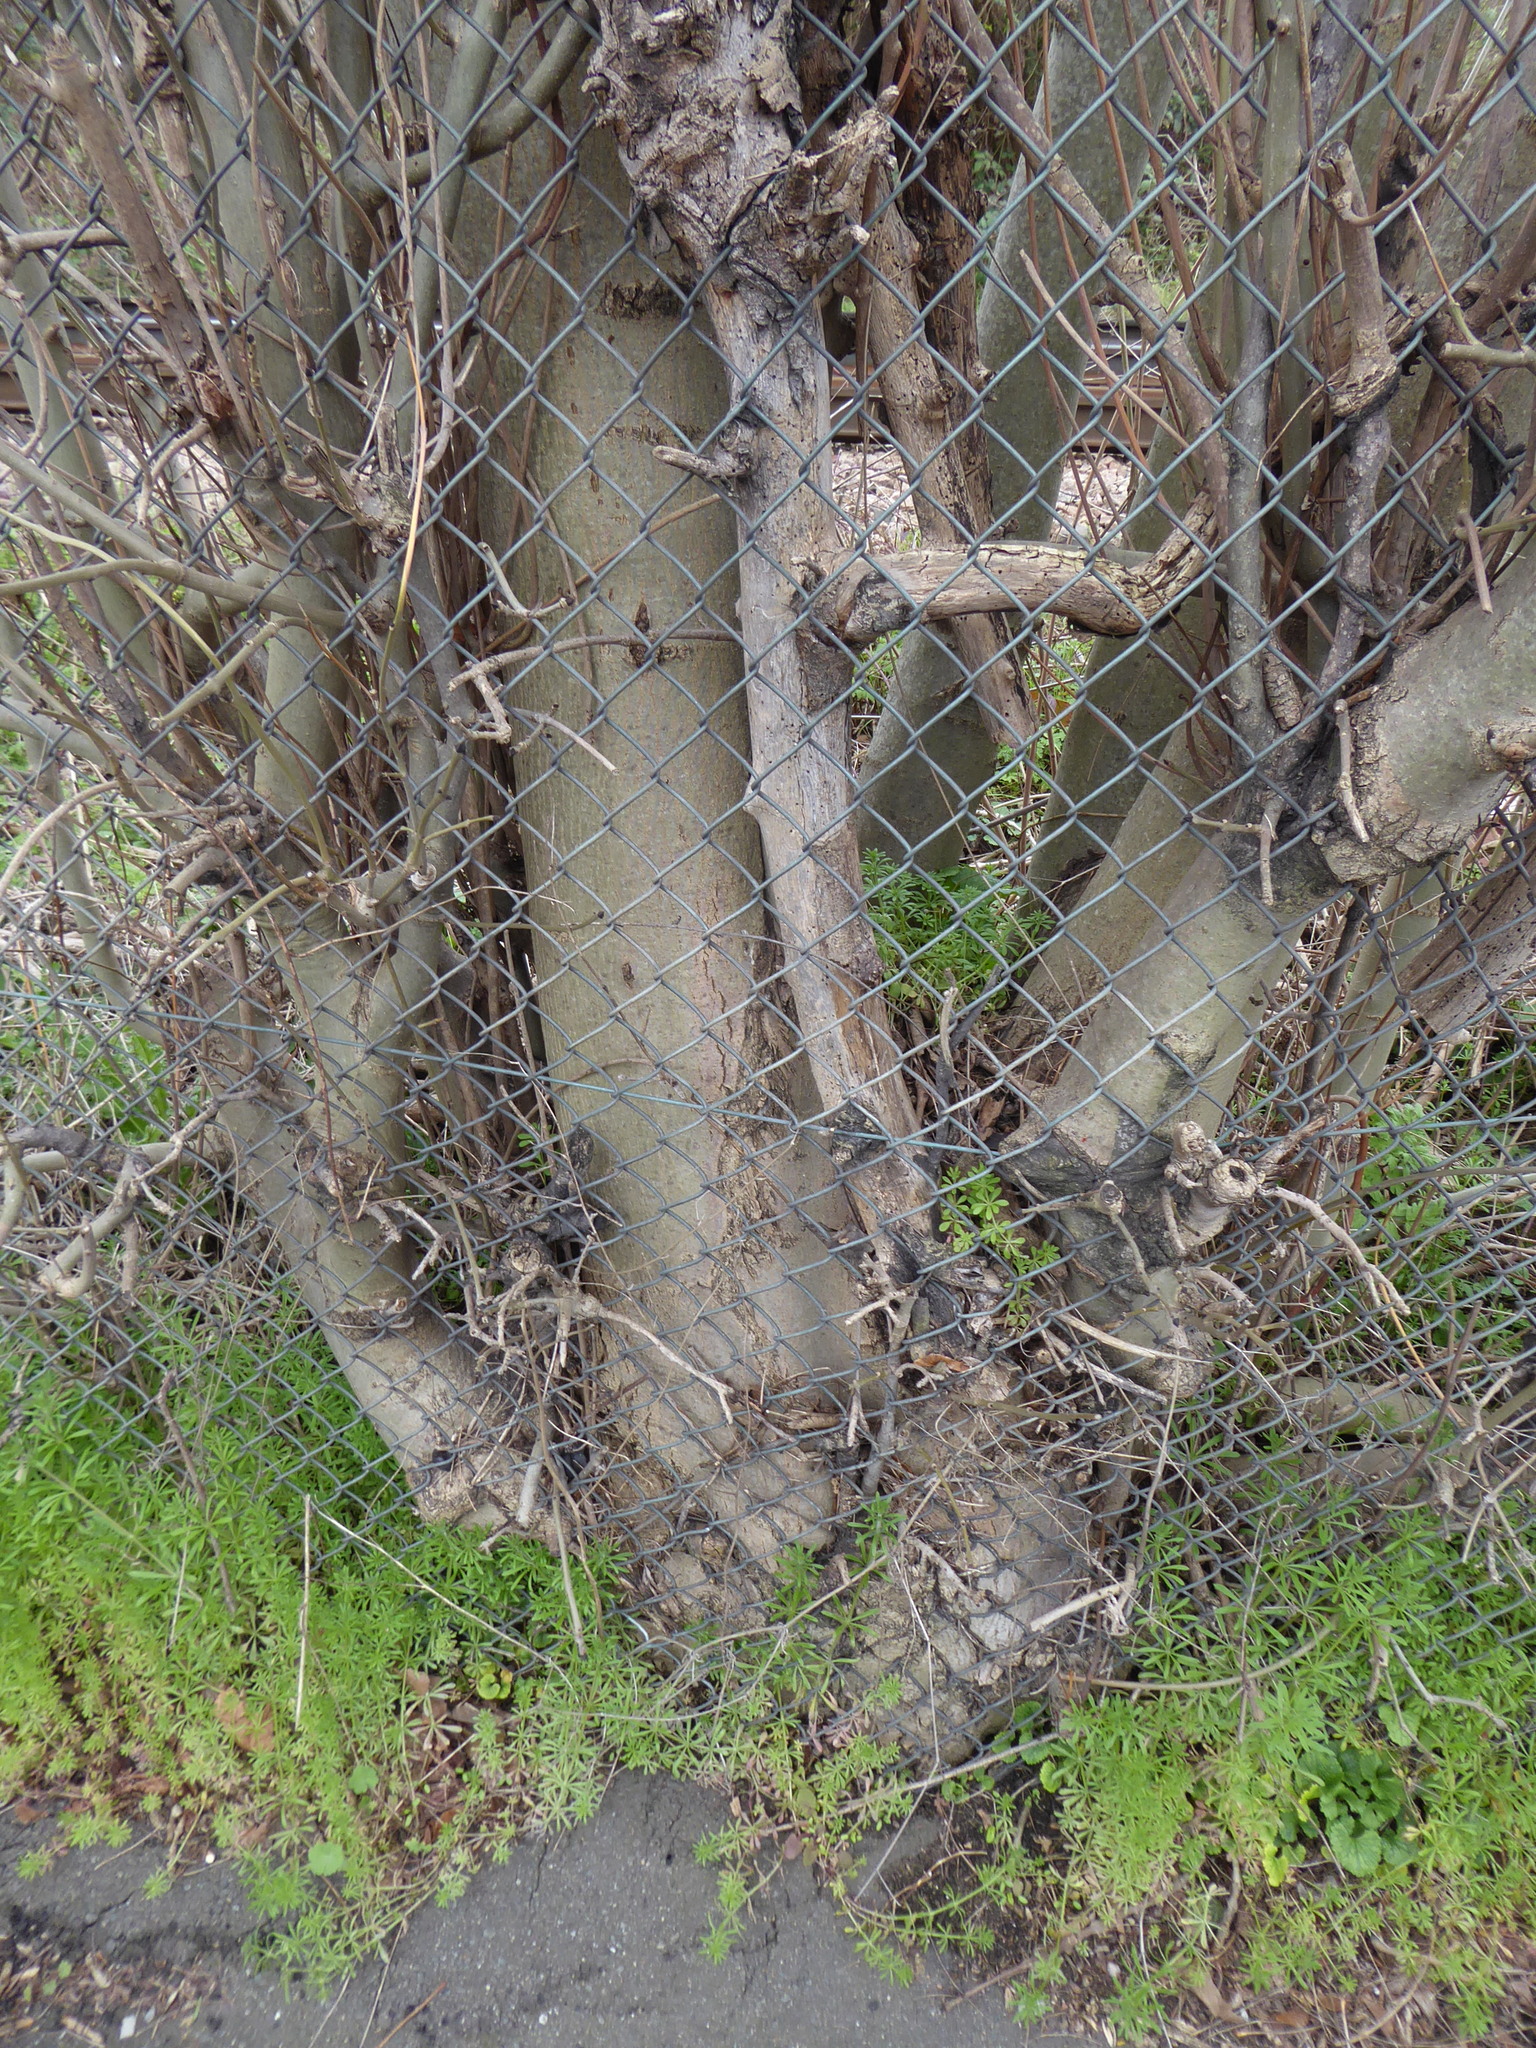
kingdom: Plantae
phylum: Tracheophyta
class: Magnoliopsida
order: Lamiales
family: Oleaceae
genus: Fraxinus
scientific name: Fraxinus excelsior
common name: European ash
